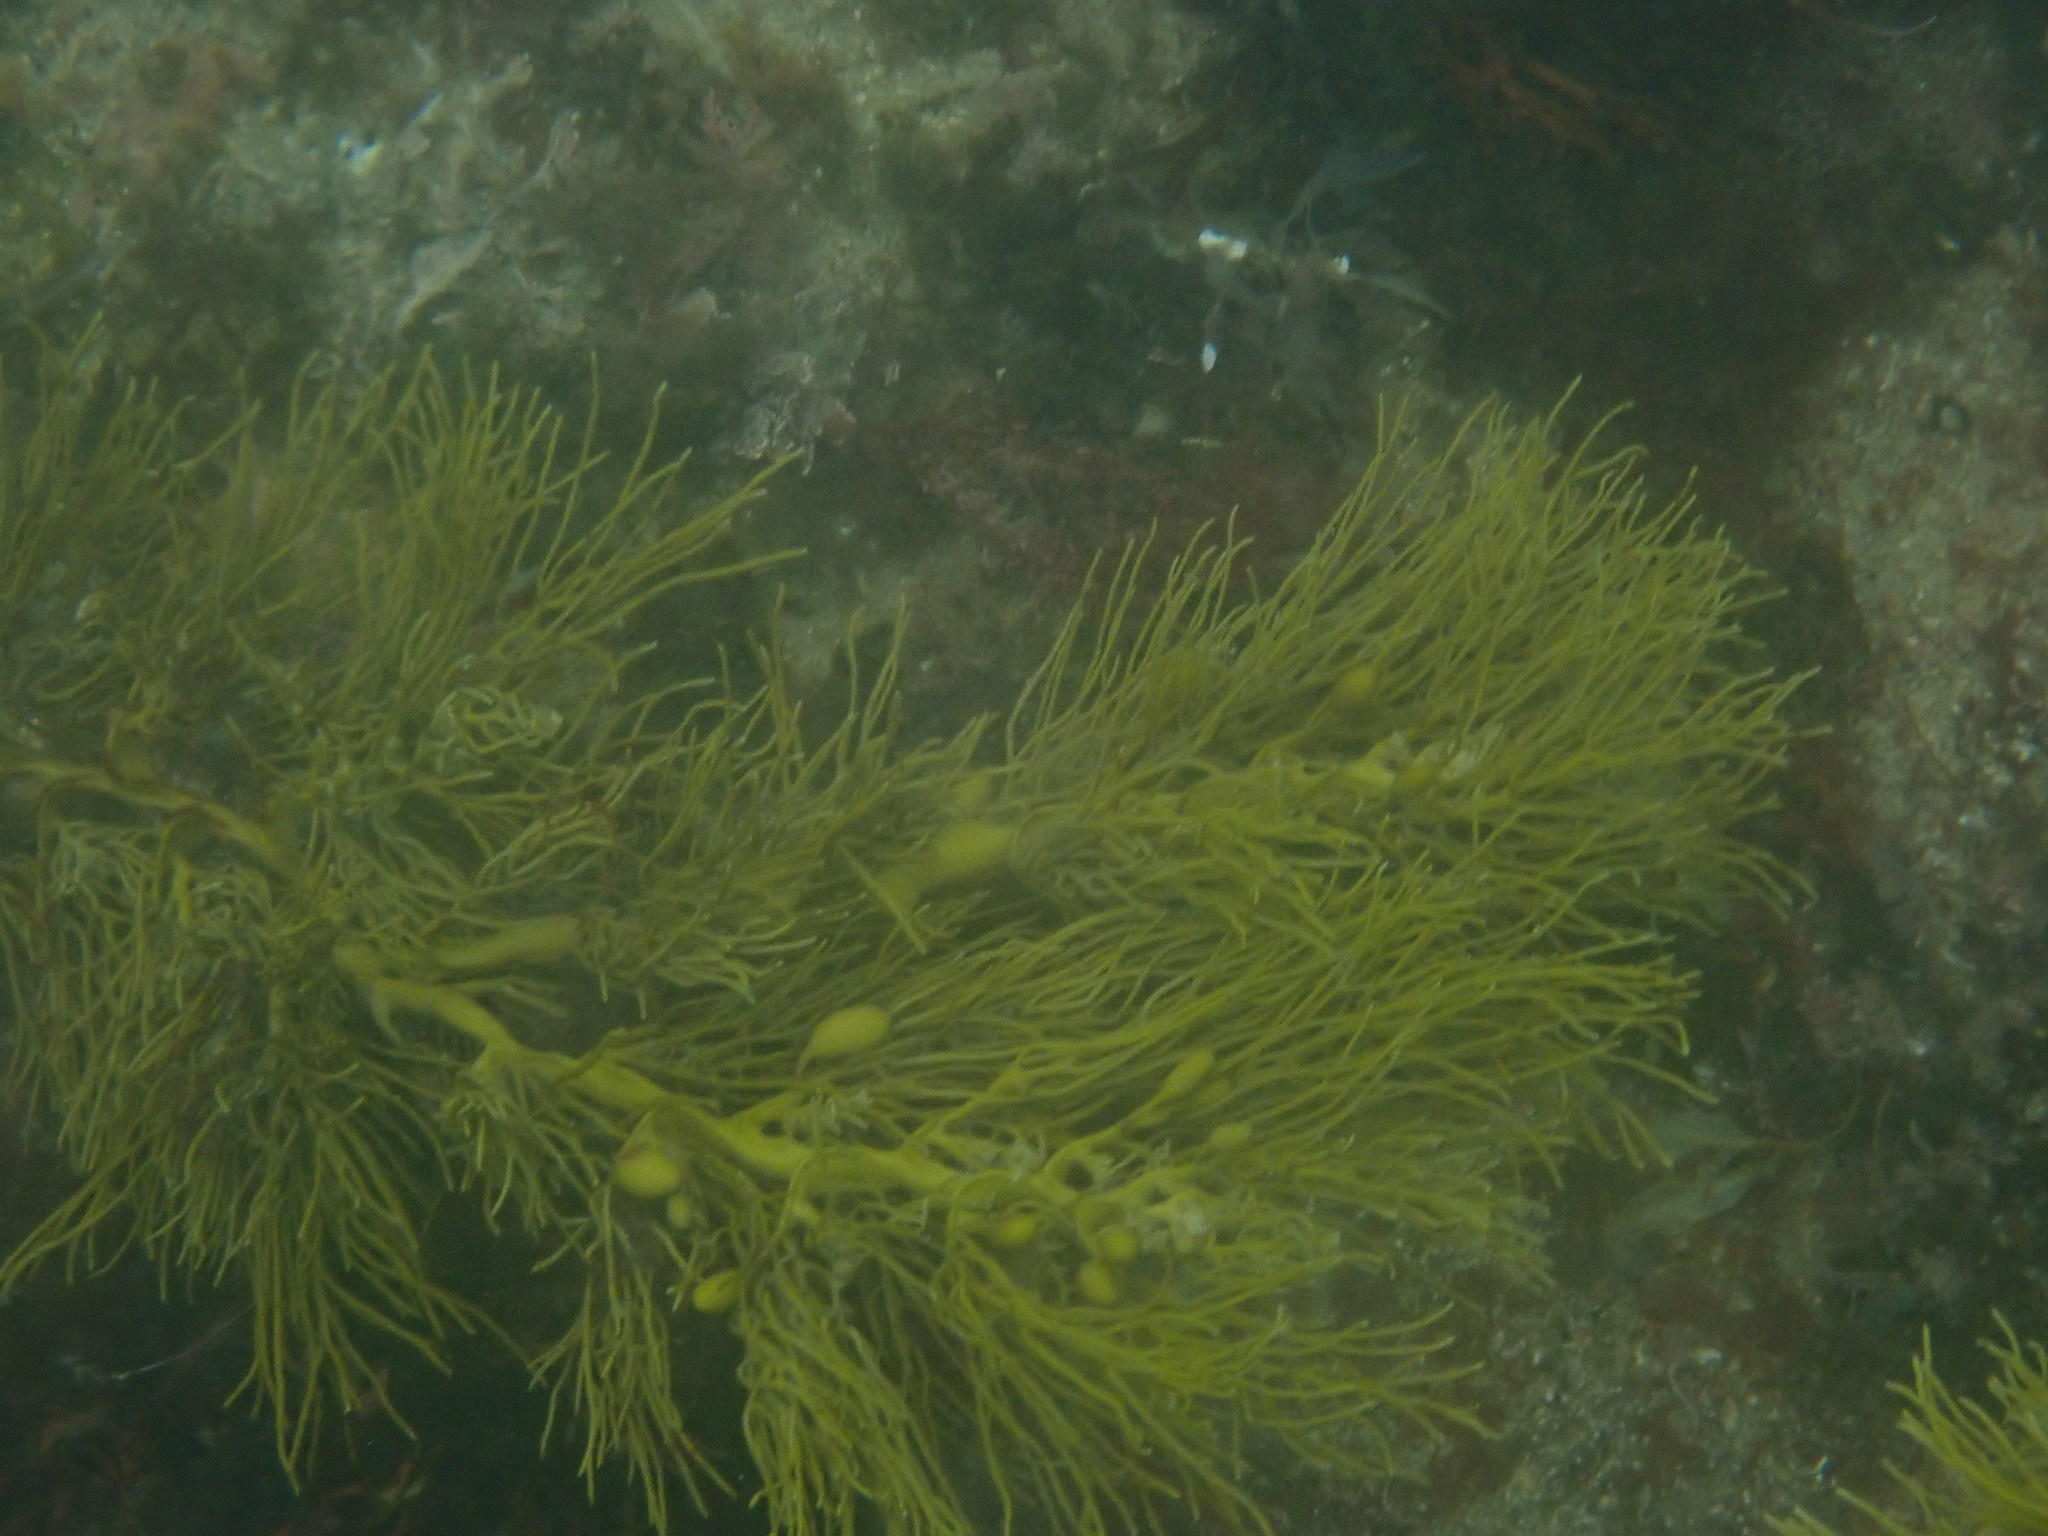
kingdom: Chromista
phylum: Ochrophyta
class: Phaeophyceae
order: Fucales
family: Sargassaceae
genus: Cystophora
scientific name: Cystophora retroflexa
